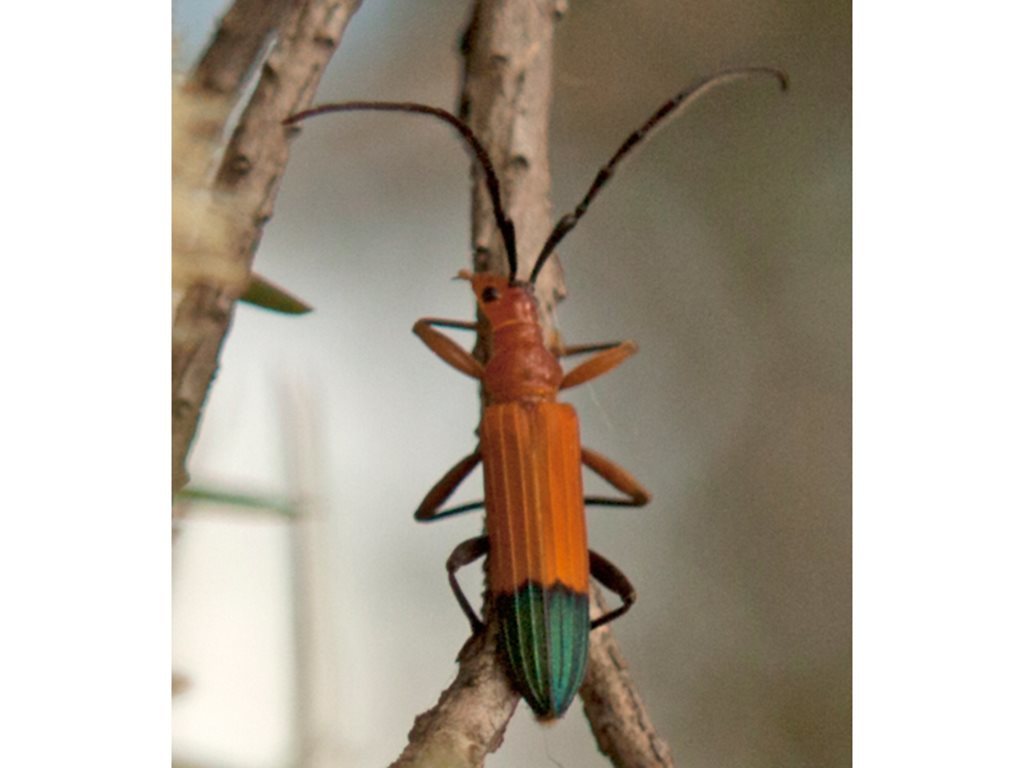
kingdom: Animalia
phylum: Arthropoda
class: Insecta
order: Coleoptera
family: Cerambycidae
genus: Stenoderus
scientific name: Stenoderus ostricilla
